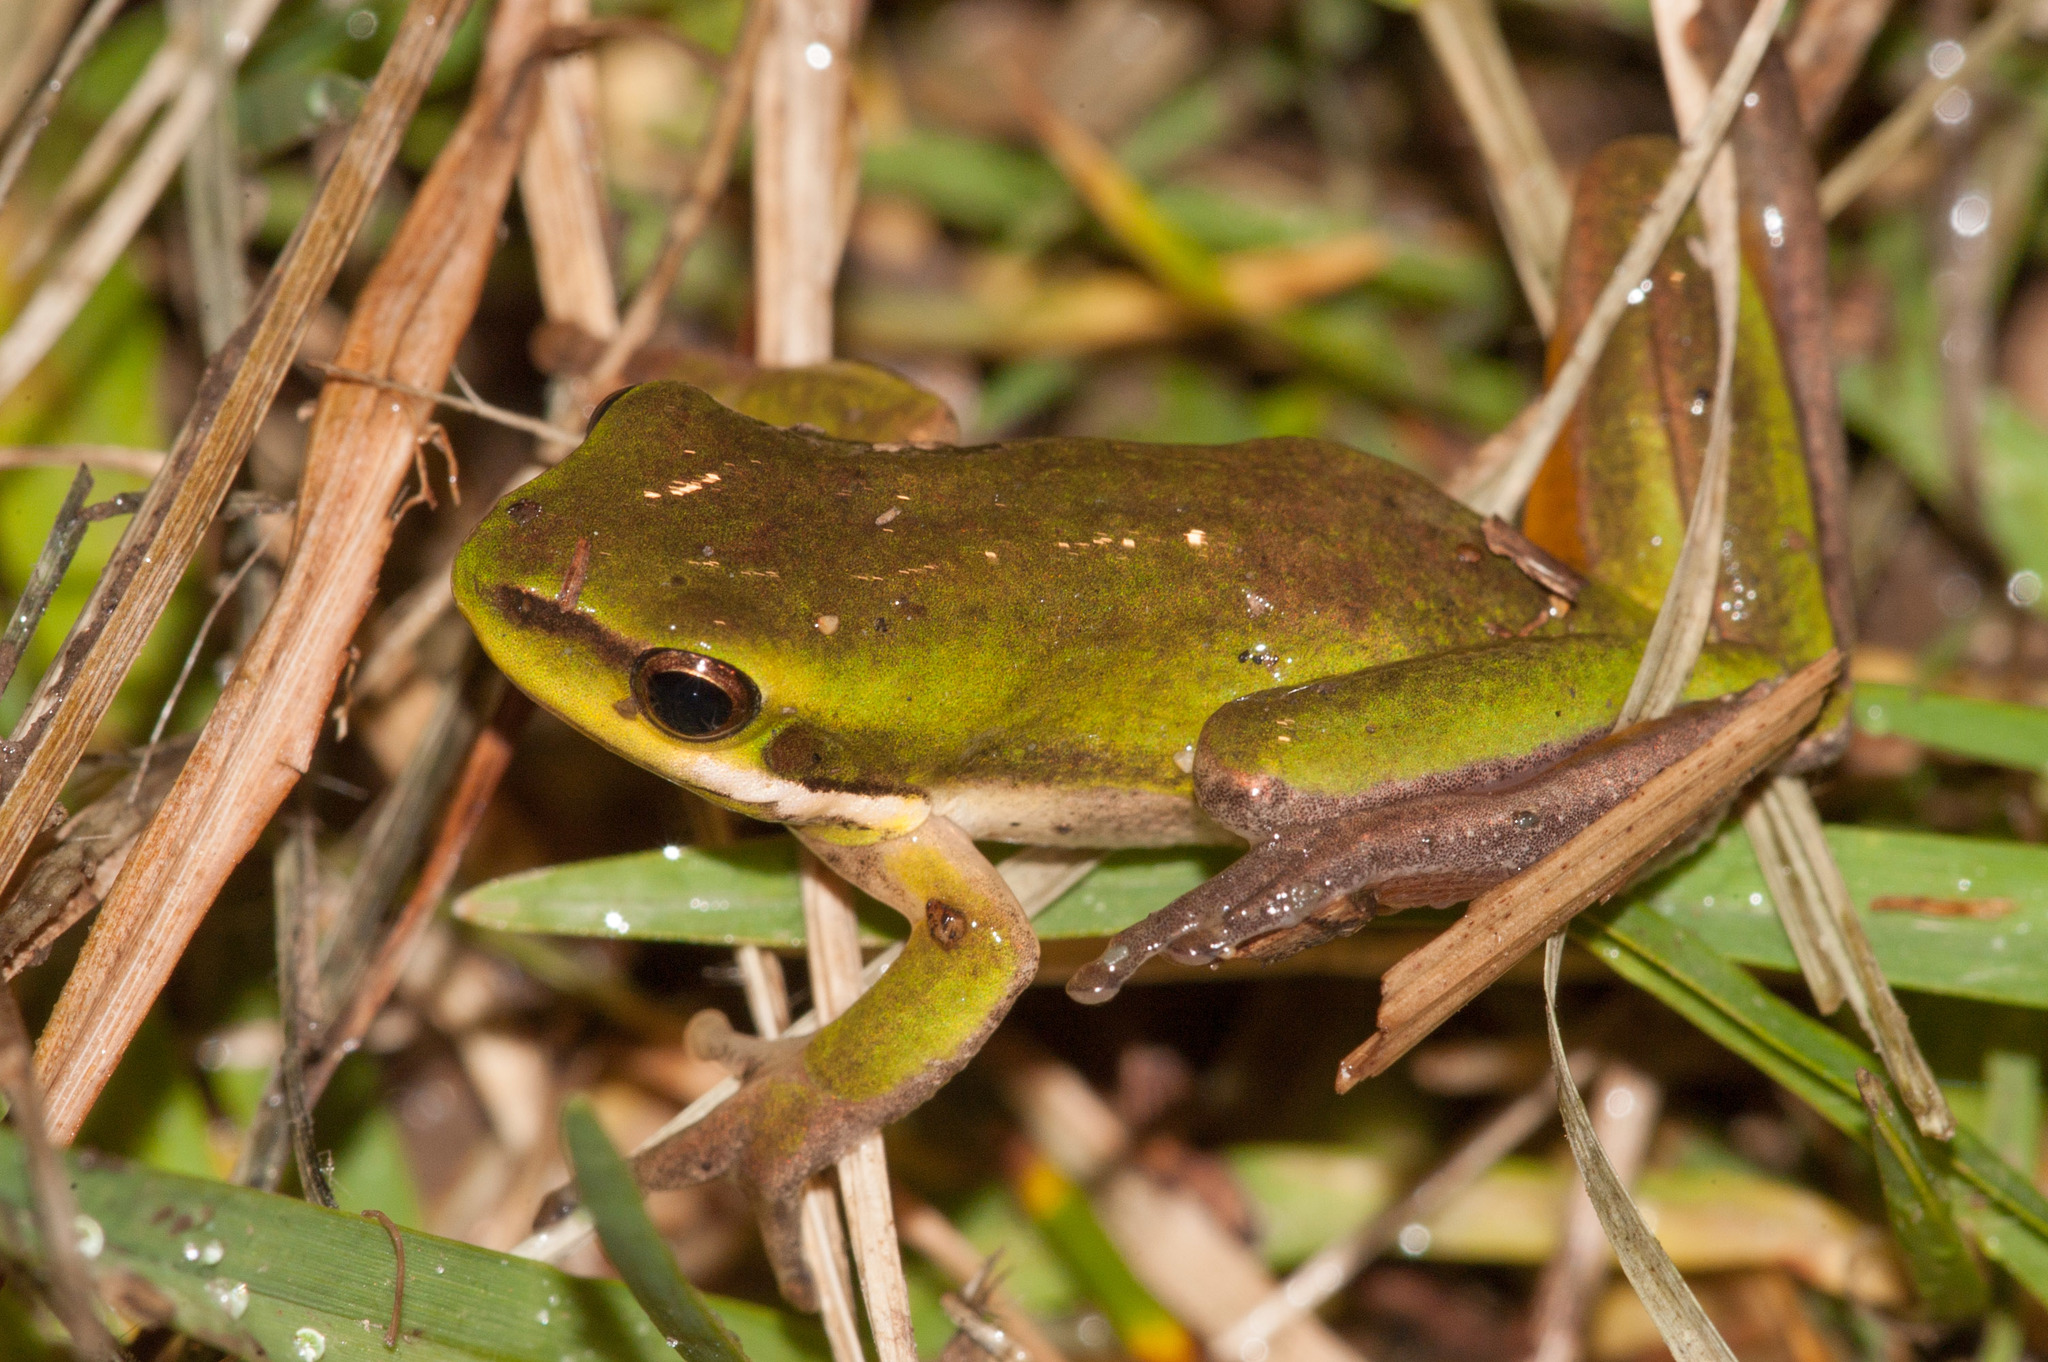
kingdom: Animalia
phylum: Chordata
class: Amphibia
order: Anura
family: Pelodryadidae
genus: Litoria
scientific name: Litoria fallax
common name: Eastern dwarf treefrog
